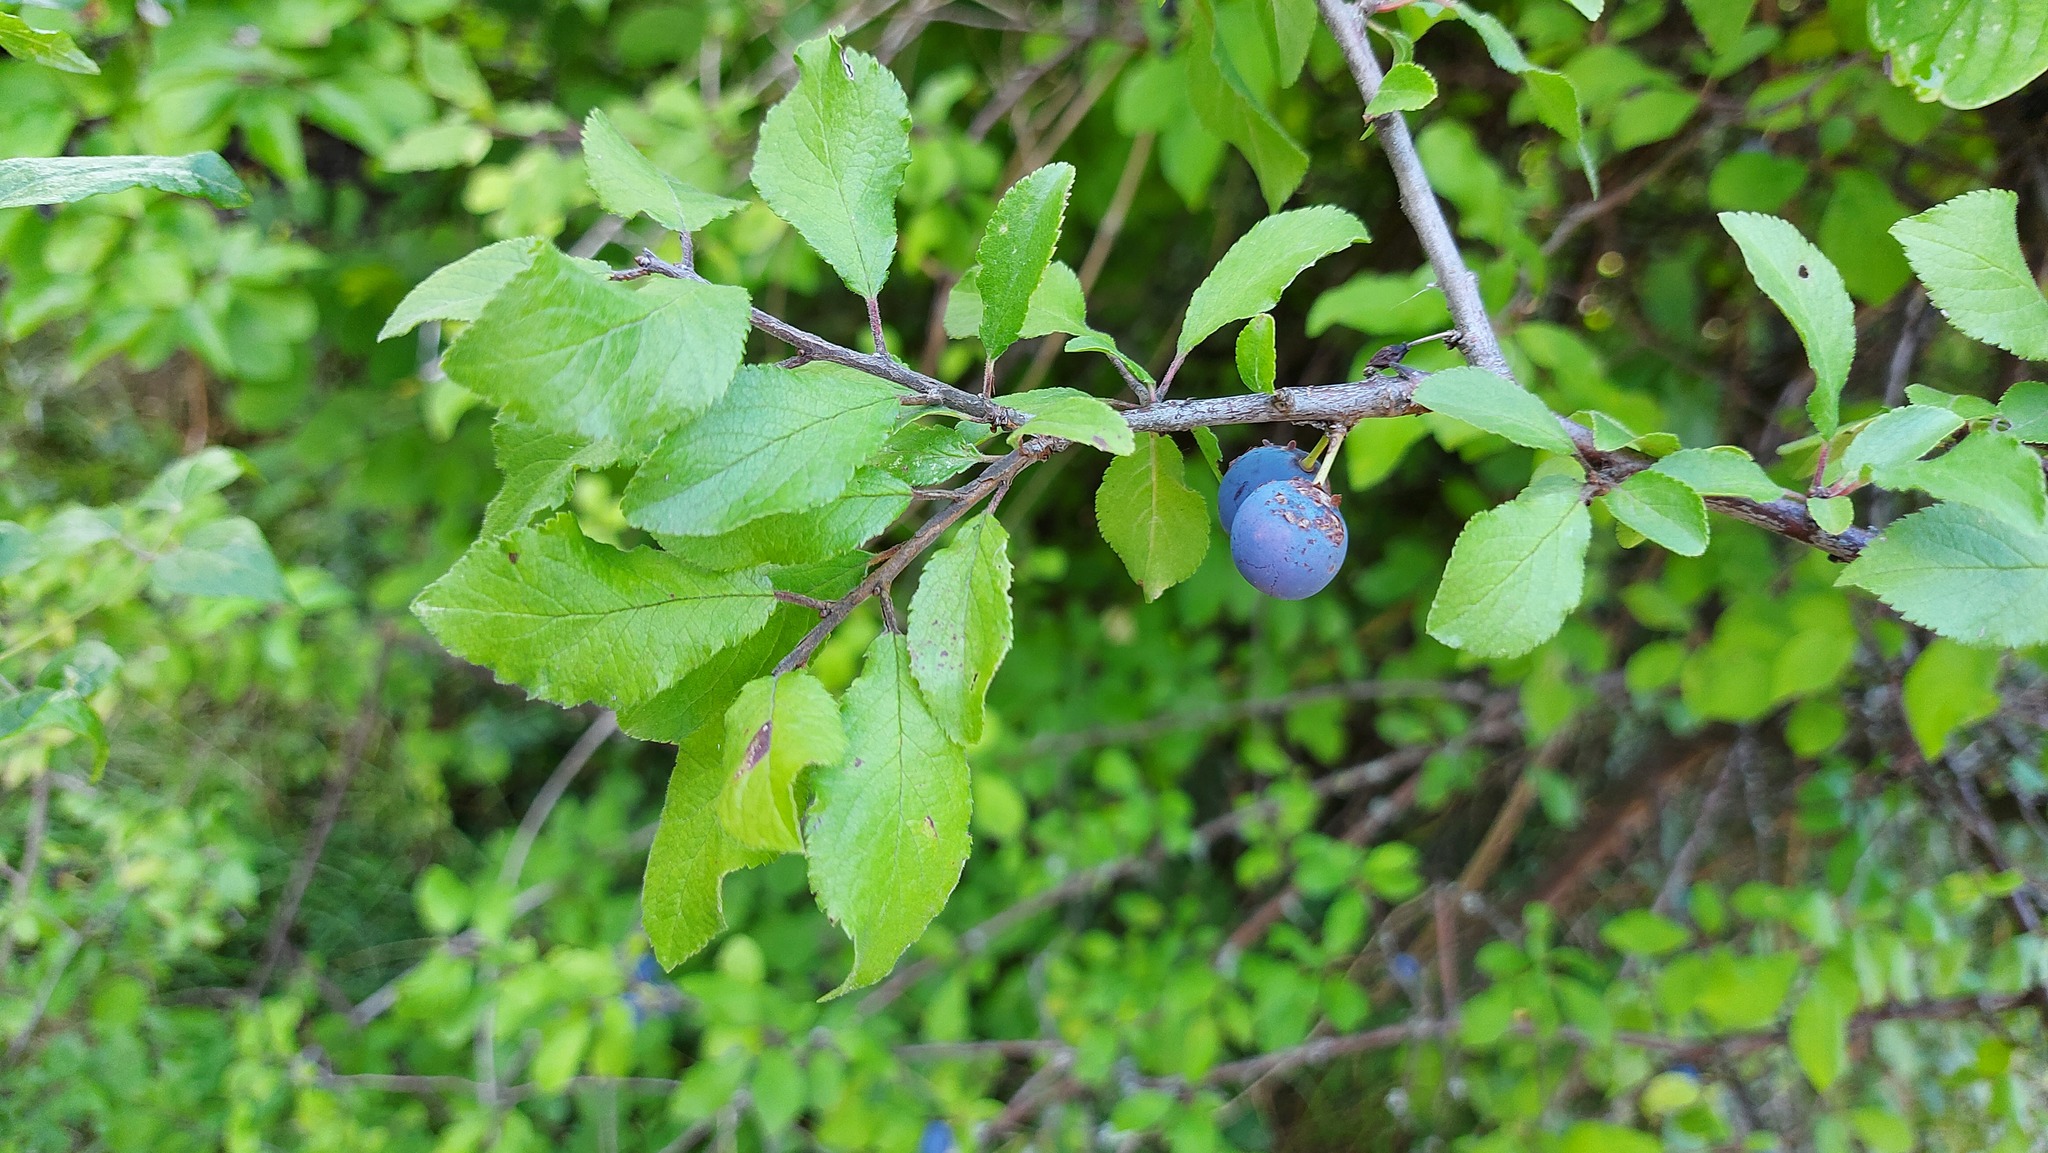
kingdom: Plantae
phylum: Tracheophyta
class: Magnoliopsida
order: Rosales
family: Rosaceae
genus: Prunus
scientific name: Prunus spinosa
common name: Blackthorn
